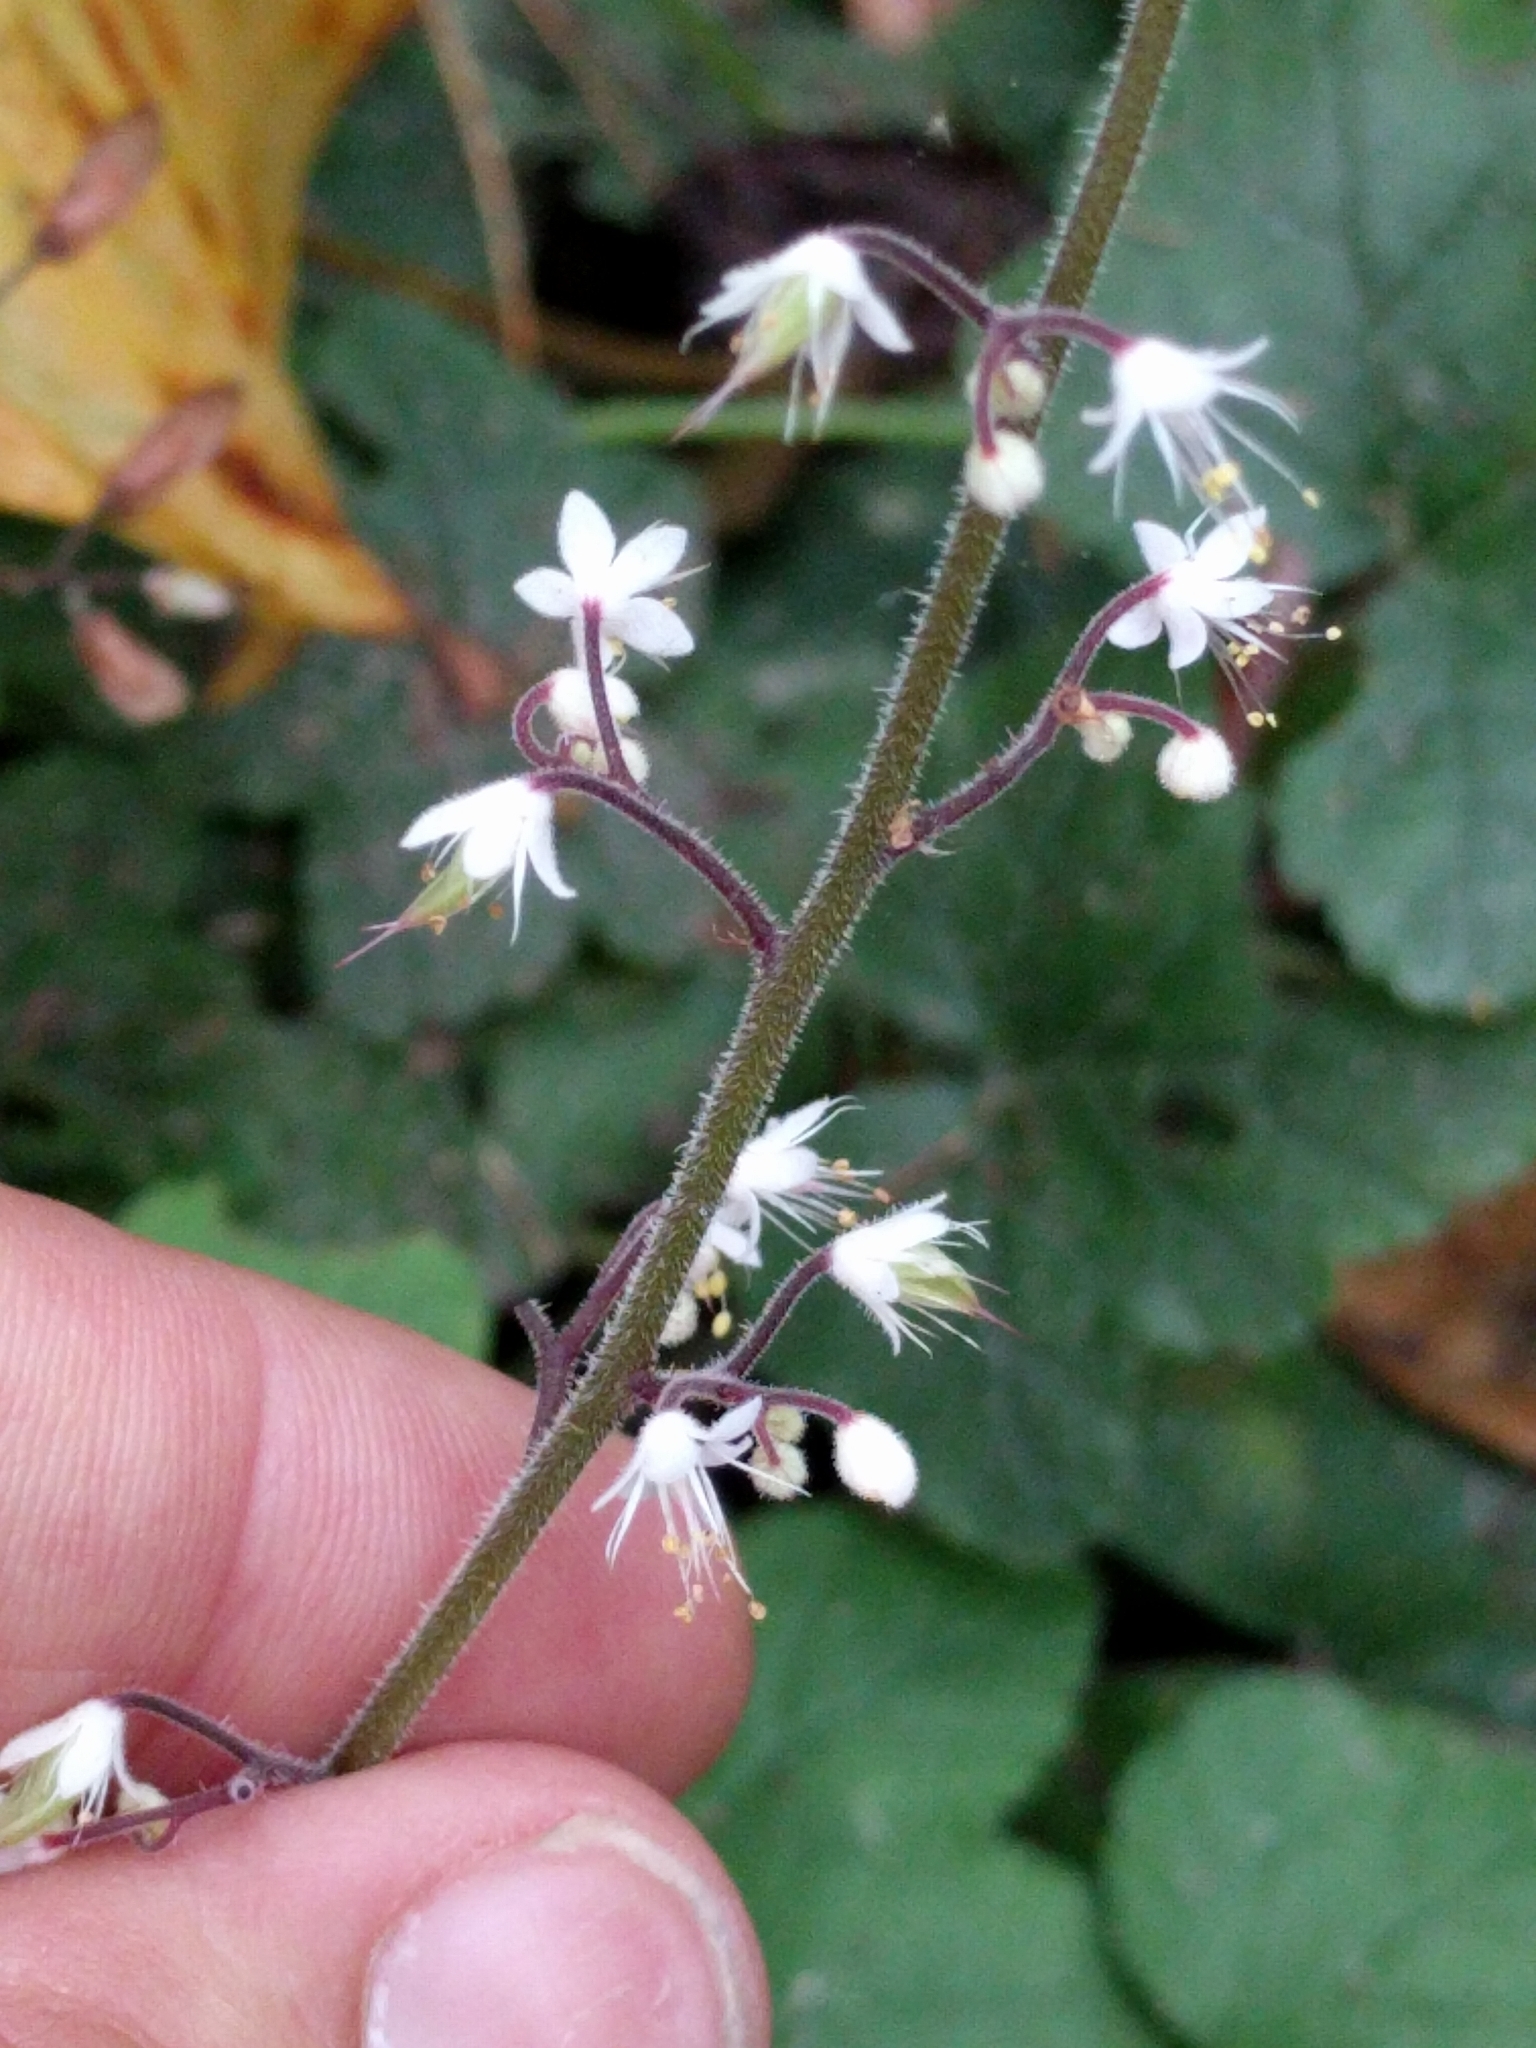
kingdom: Plantae
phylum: Tracheophyta
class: Magnoliopsida
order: Saxifragales
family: Saxifragaceae
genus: Tiarella
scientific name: Tiarella trifoliata
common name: Sugar-scoop
